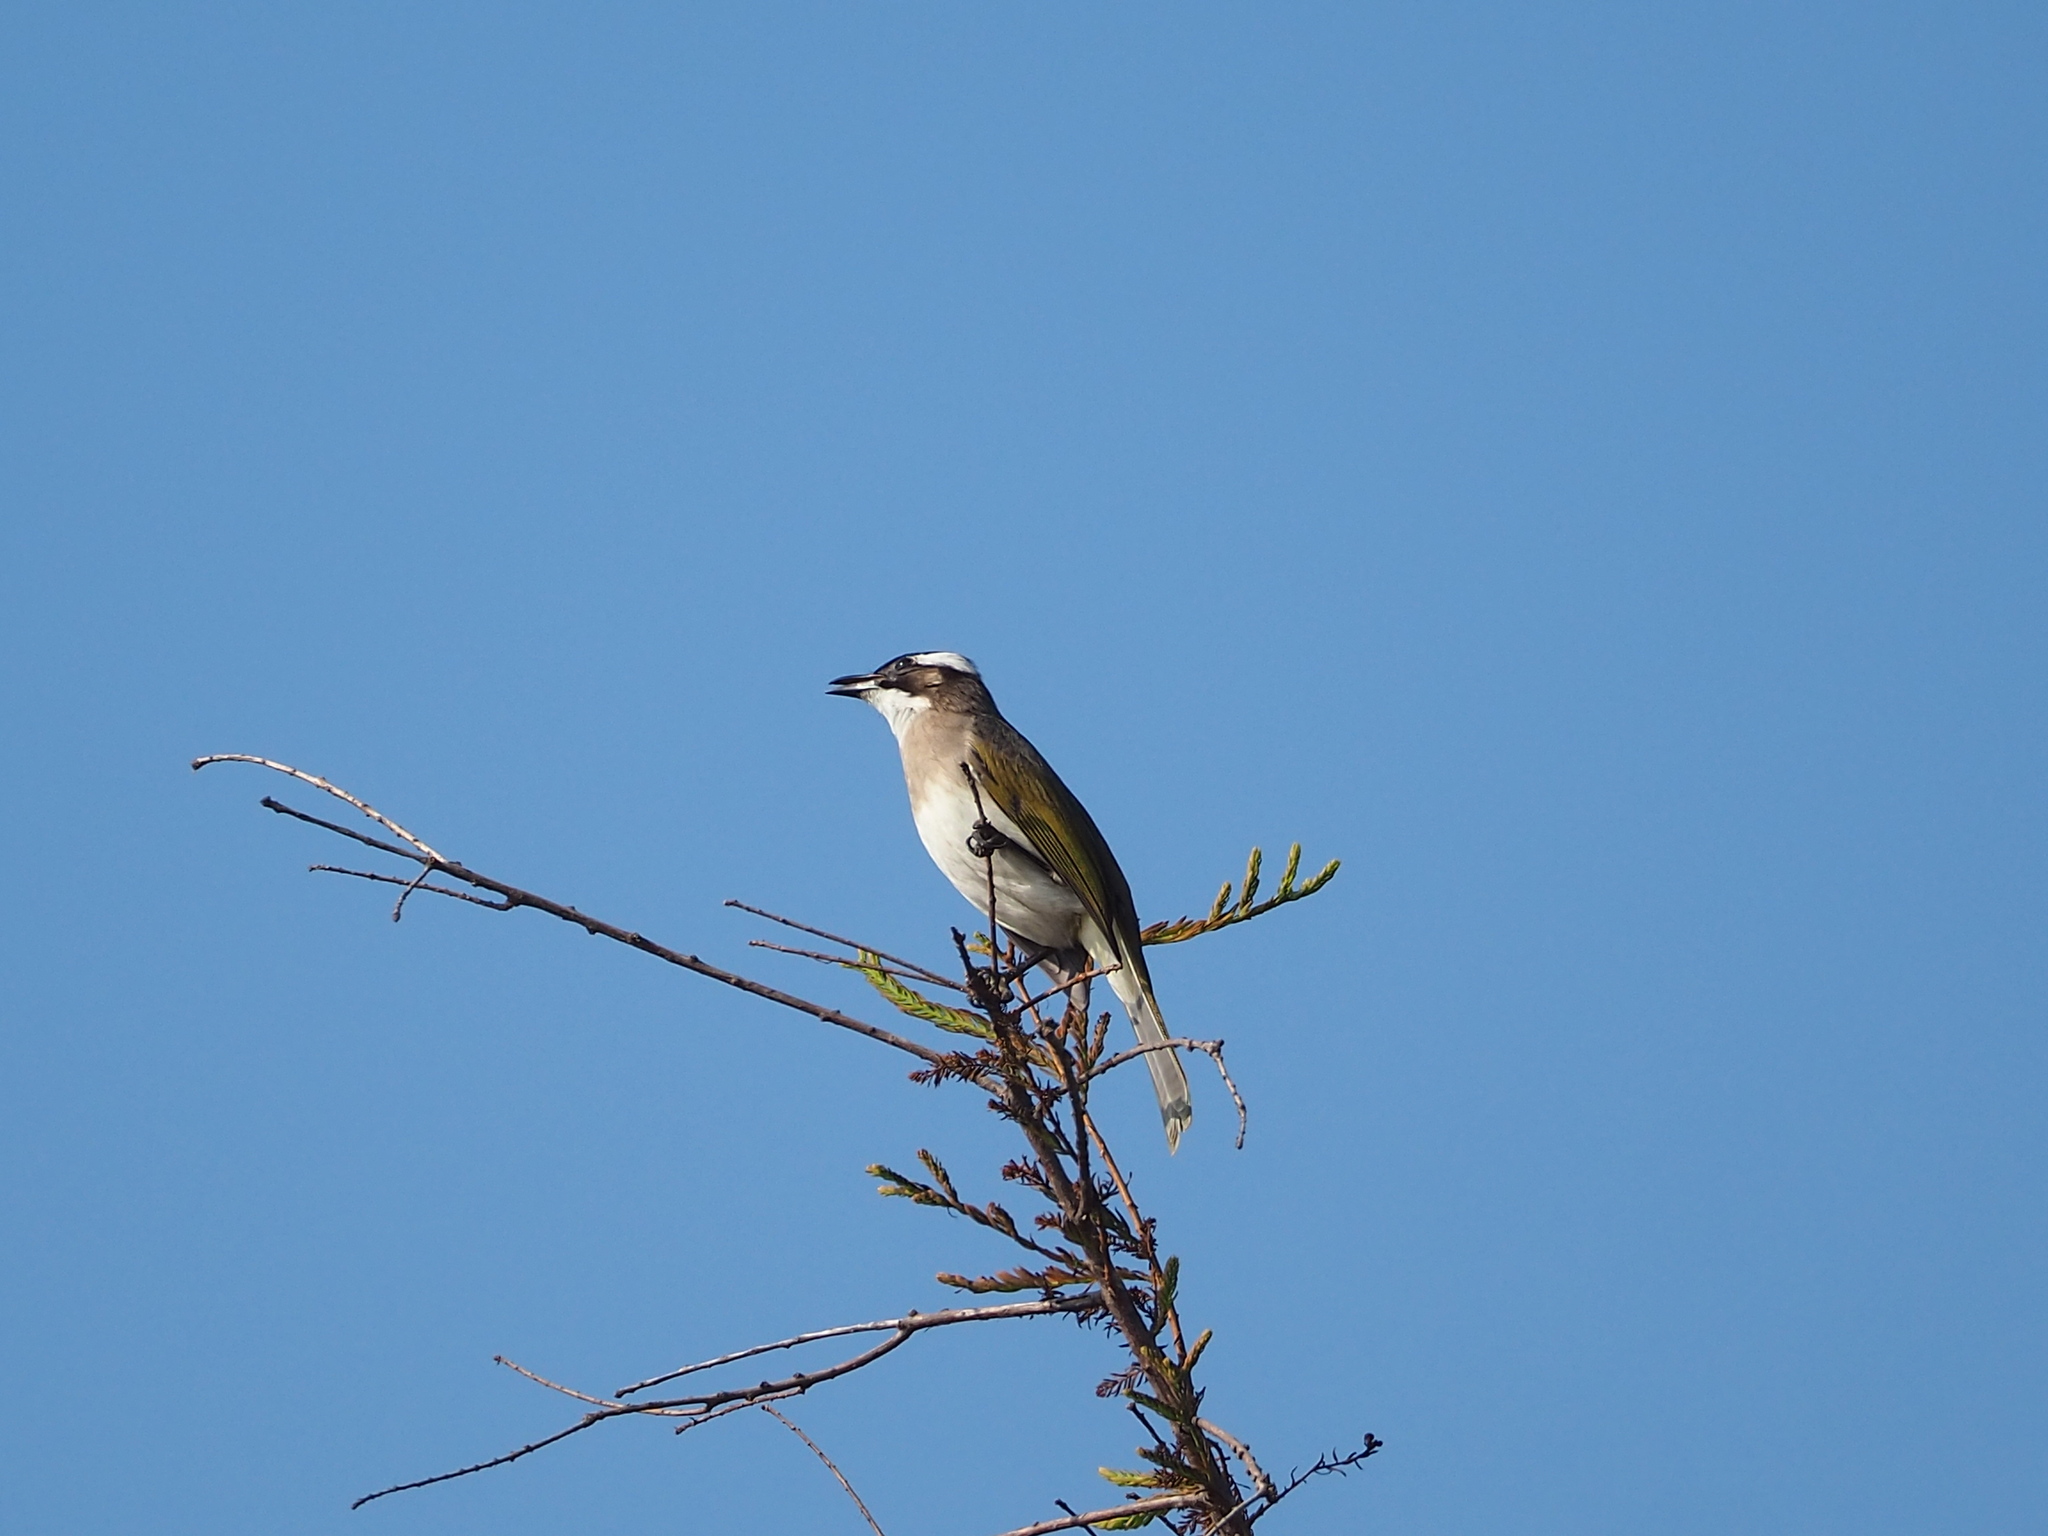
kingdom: Animalia
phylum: Chordata
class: Aves
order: Passeriformes
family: Pycnonotidae
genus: Pycnonotus
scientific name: Pycnonotus sinensis
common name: Light-vented bulbul
